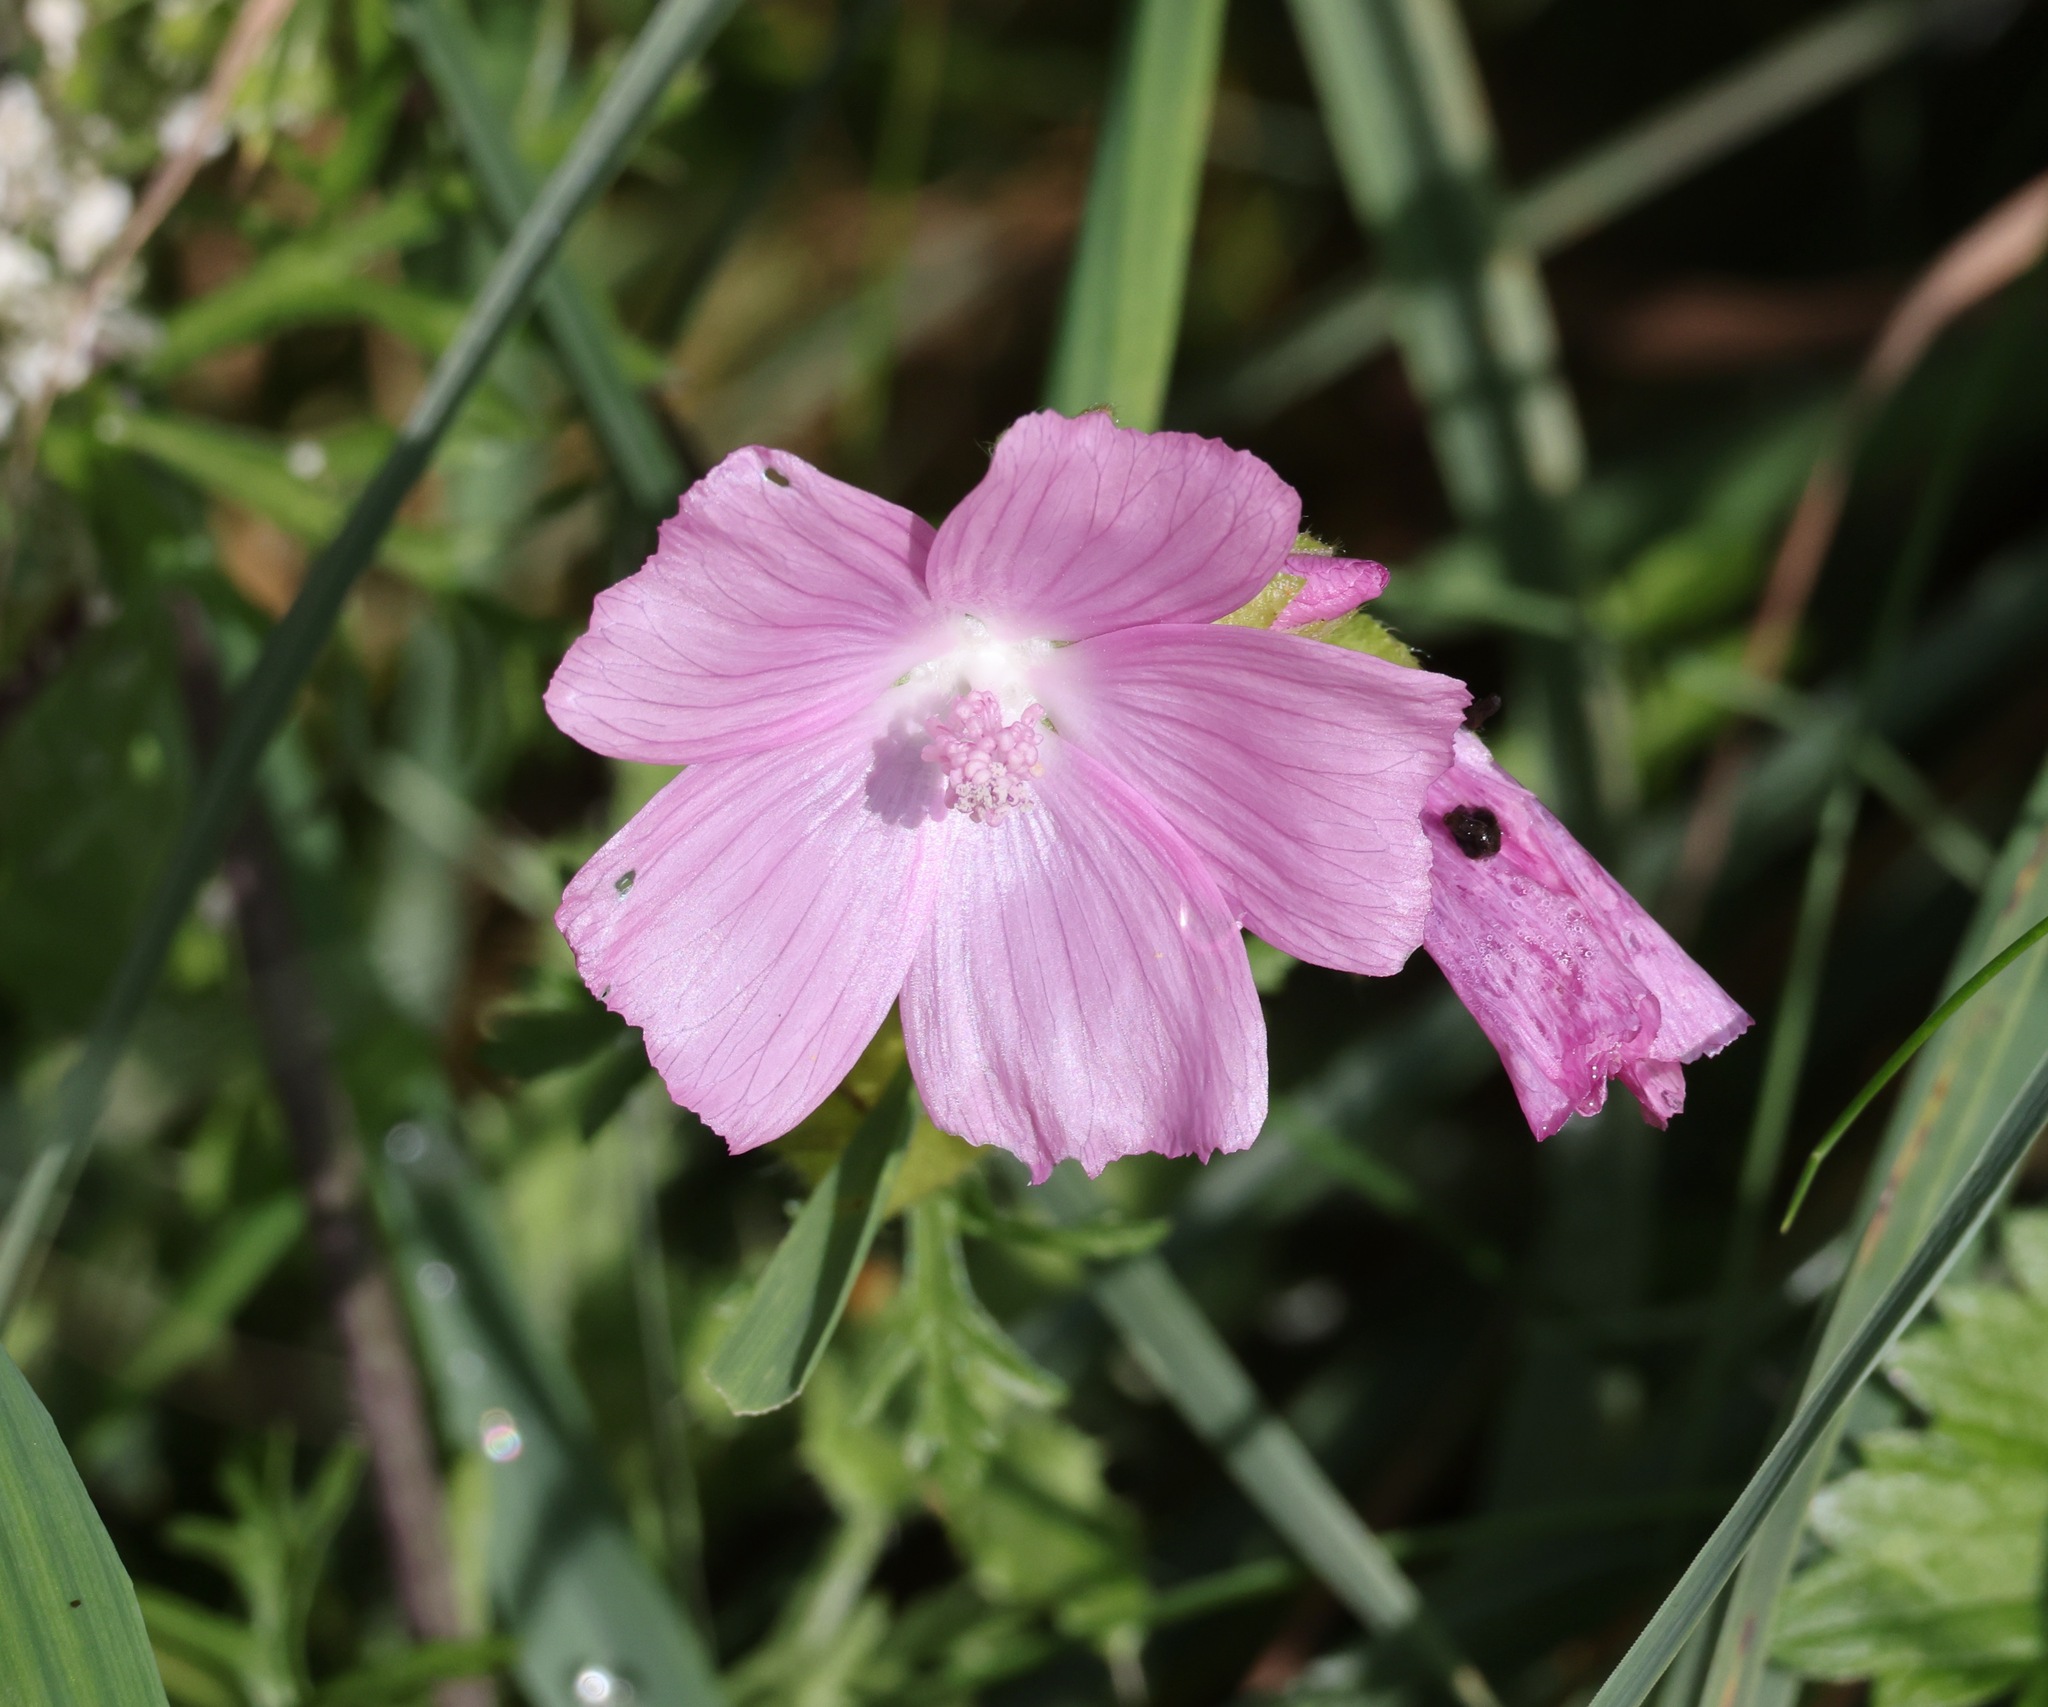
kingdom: Plantae
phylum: Tracheophyta
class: Magnoliopsida
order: Malvales
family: Malvaceae
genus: Malva
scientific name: Malva moschata
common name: Musk mallow
